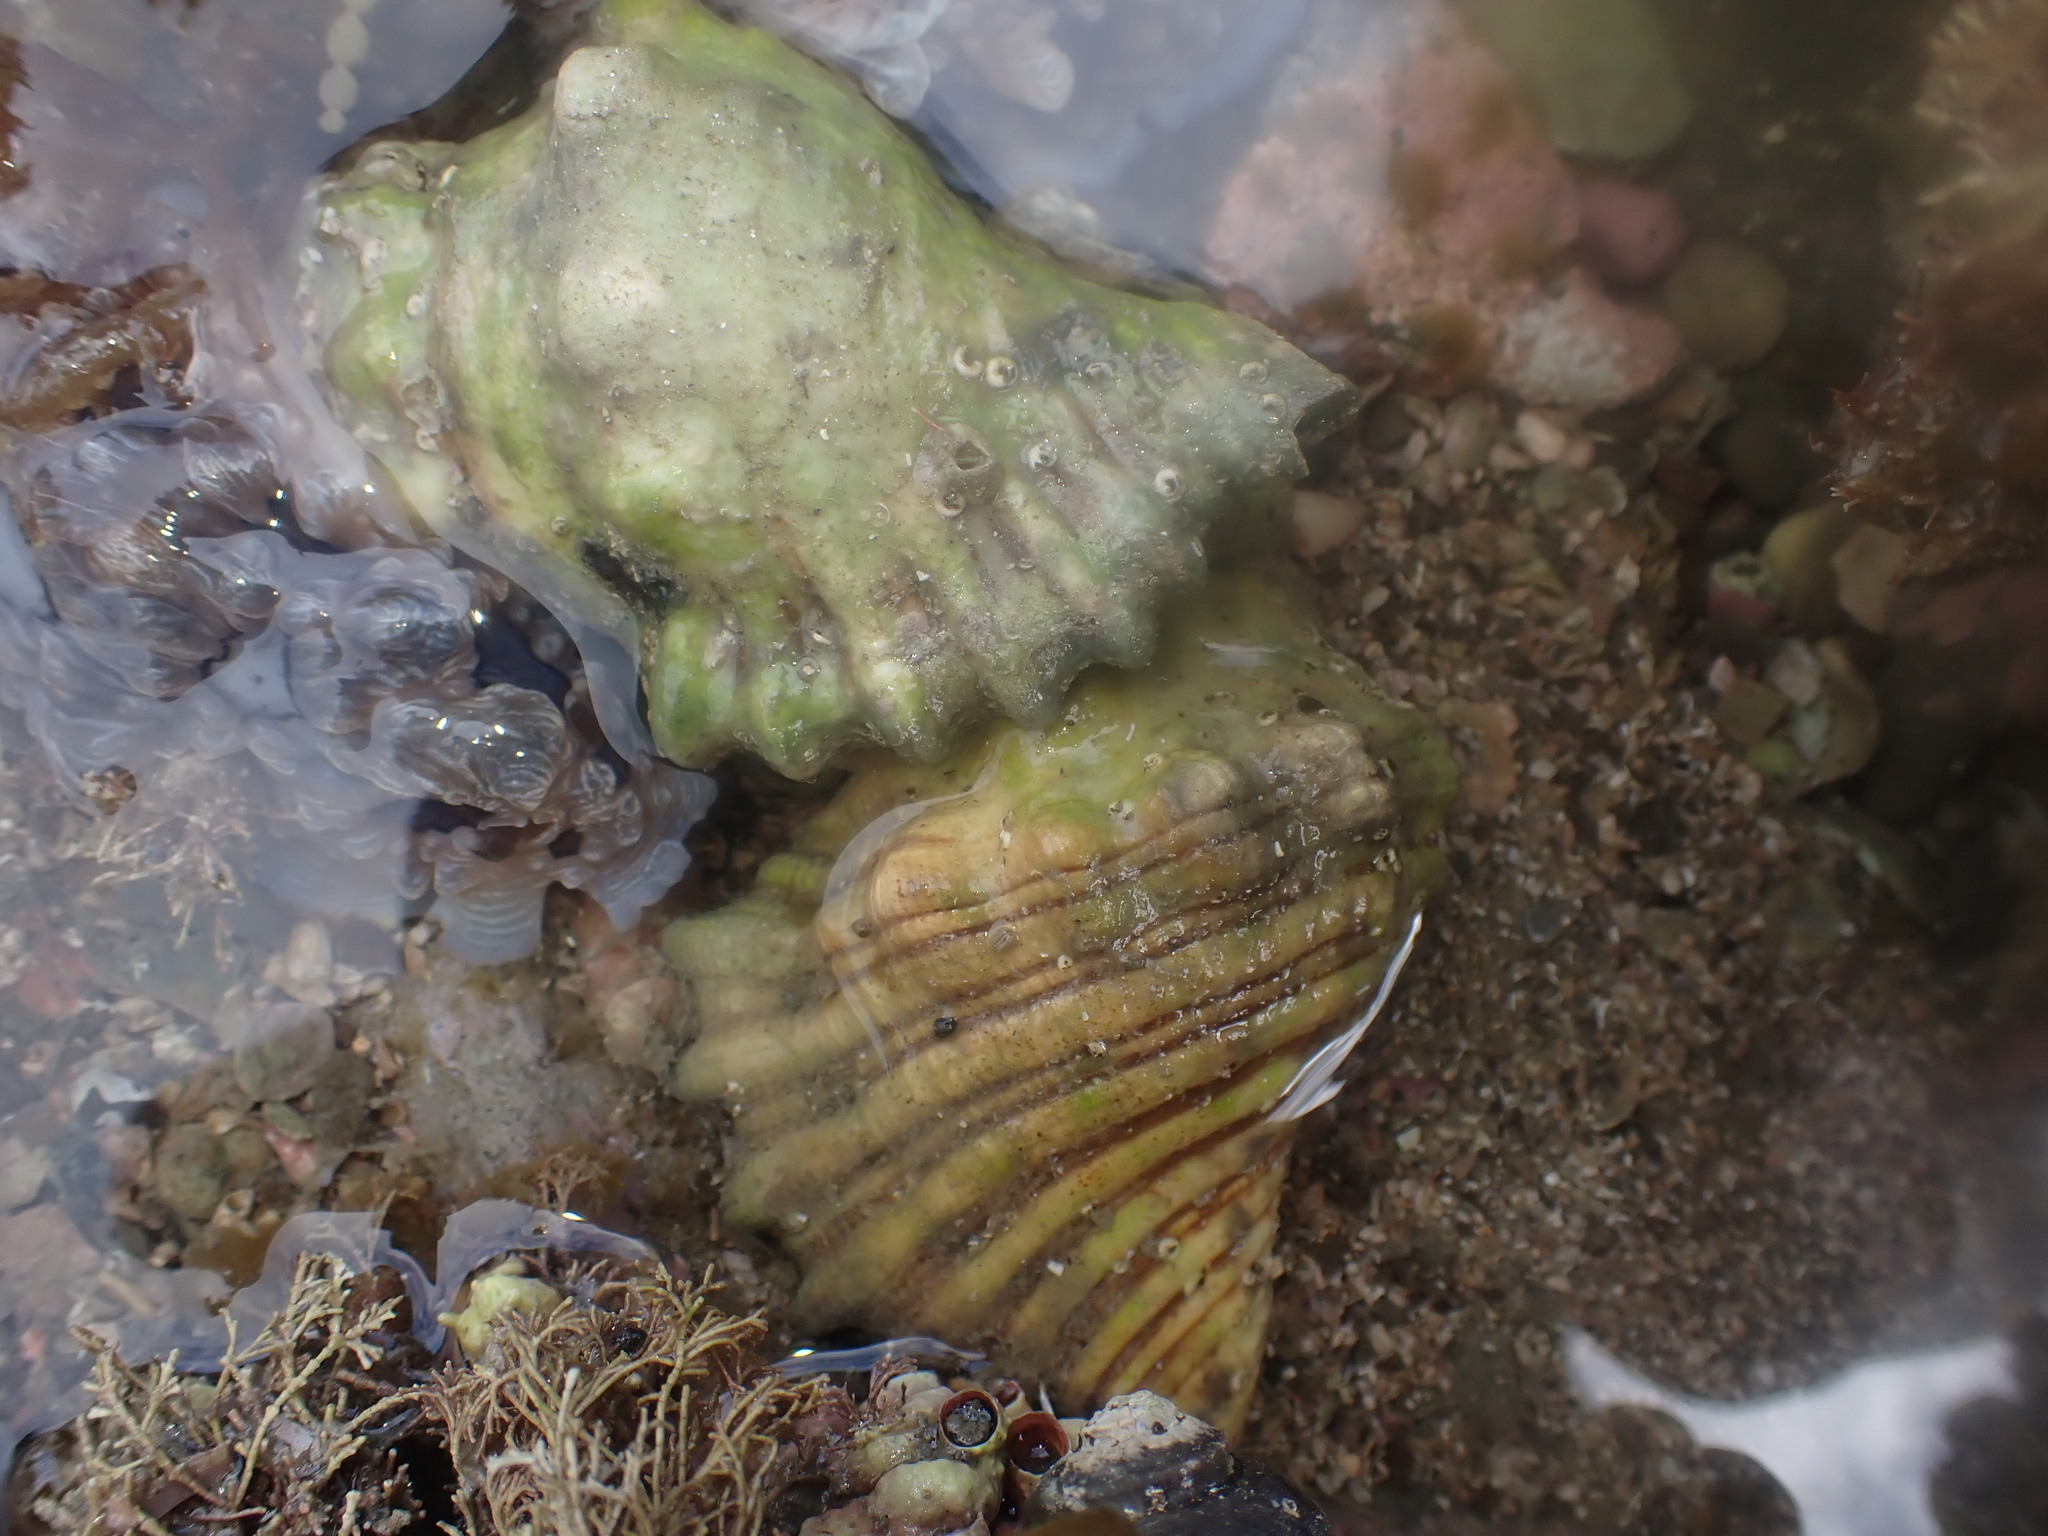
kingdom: Animalia
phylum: Mollusca
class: Gastropoda
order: Littorinimorpha
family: Cymatiidae
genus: Cabestana
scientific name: Cabestana spengleri
